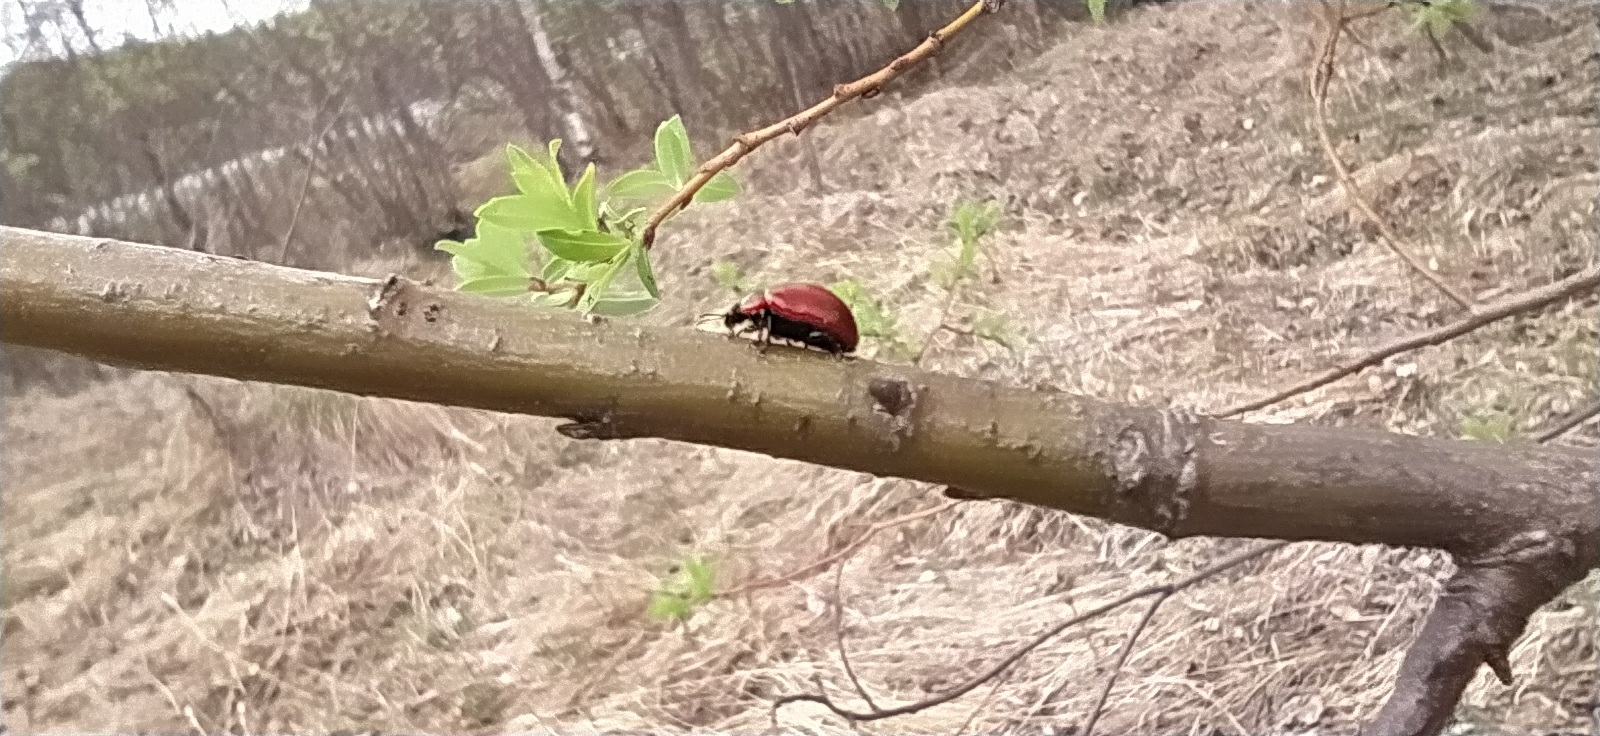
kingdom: Animalia
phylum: Arthropoda
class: Insecta
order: Coleoptera
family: Chrysomelidae
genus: Gonioctena
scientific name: Gonioctena viminalis
